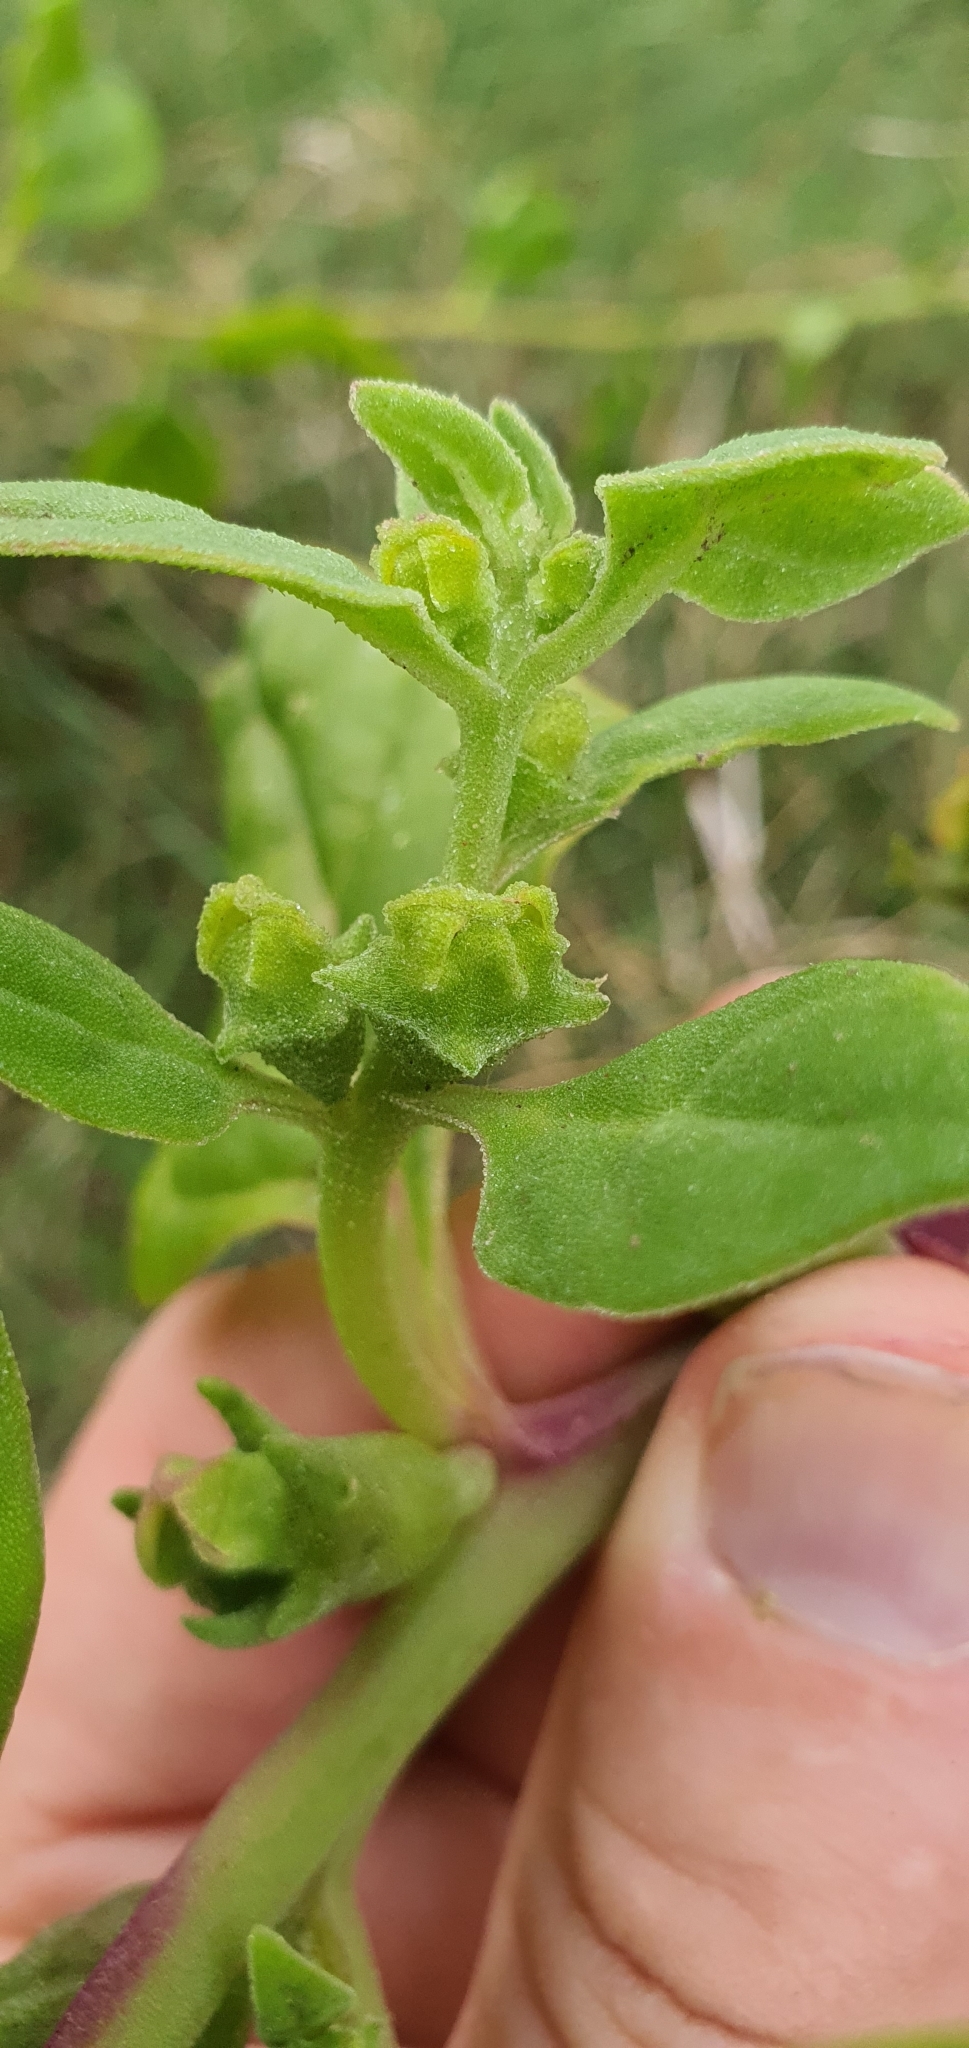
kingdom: Plantae
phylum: Tracheophyta
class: Magnoliopsida
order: Caryophyllales
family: Aizoaceae
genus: Tetragonia
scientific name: Tetragonia tetragonoides
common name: New zealand-spinach
